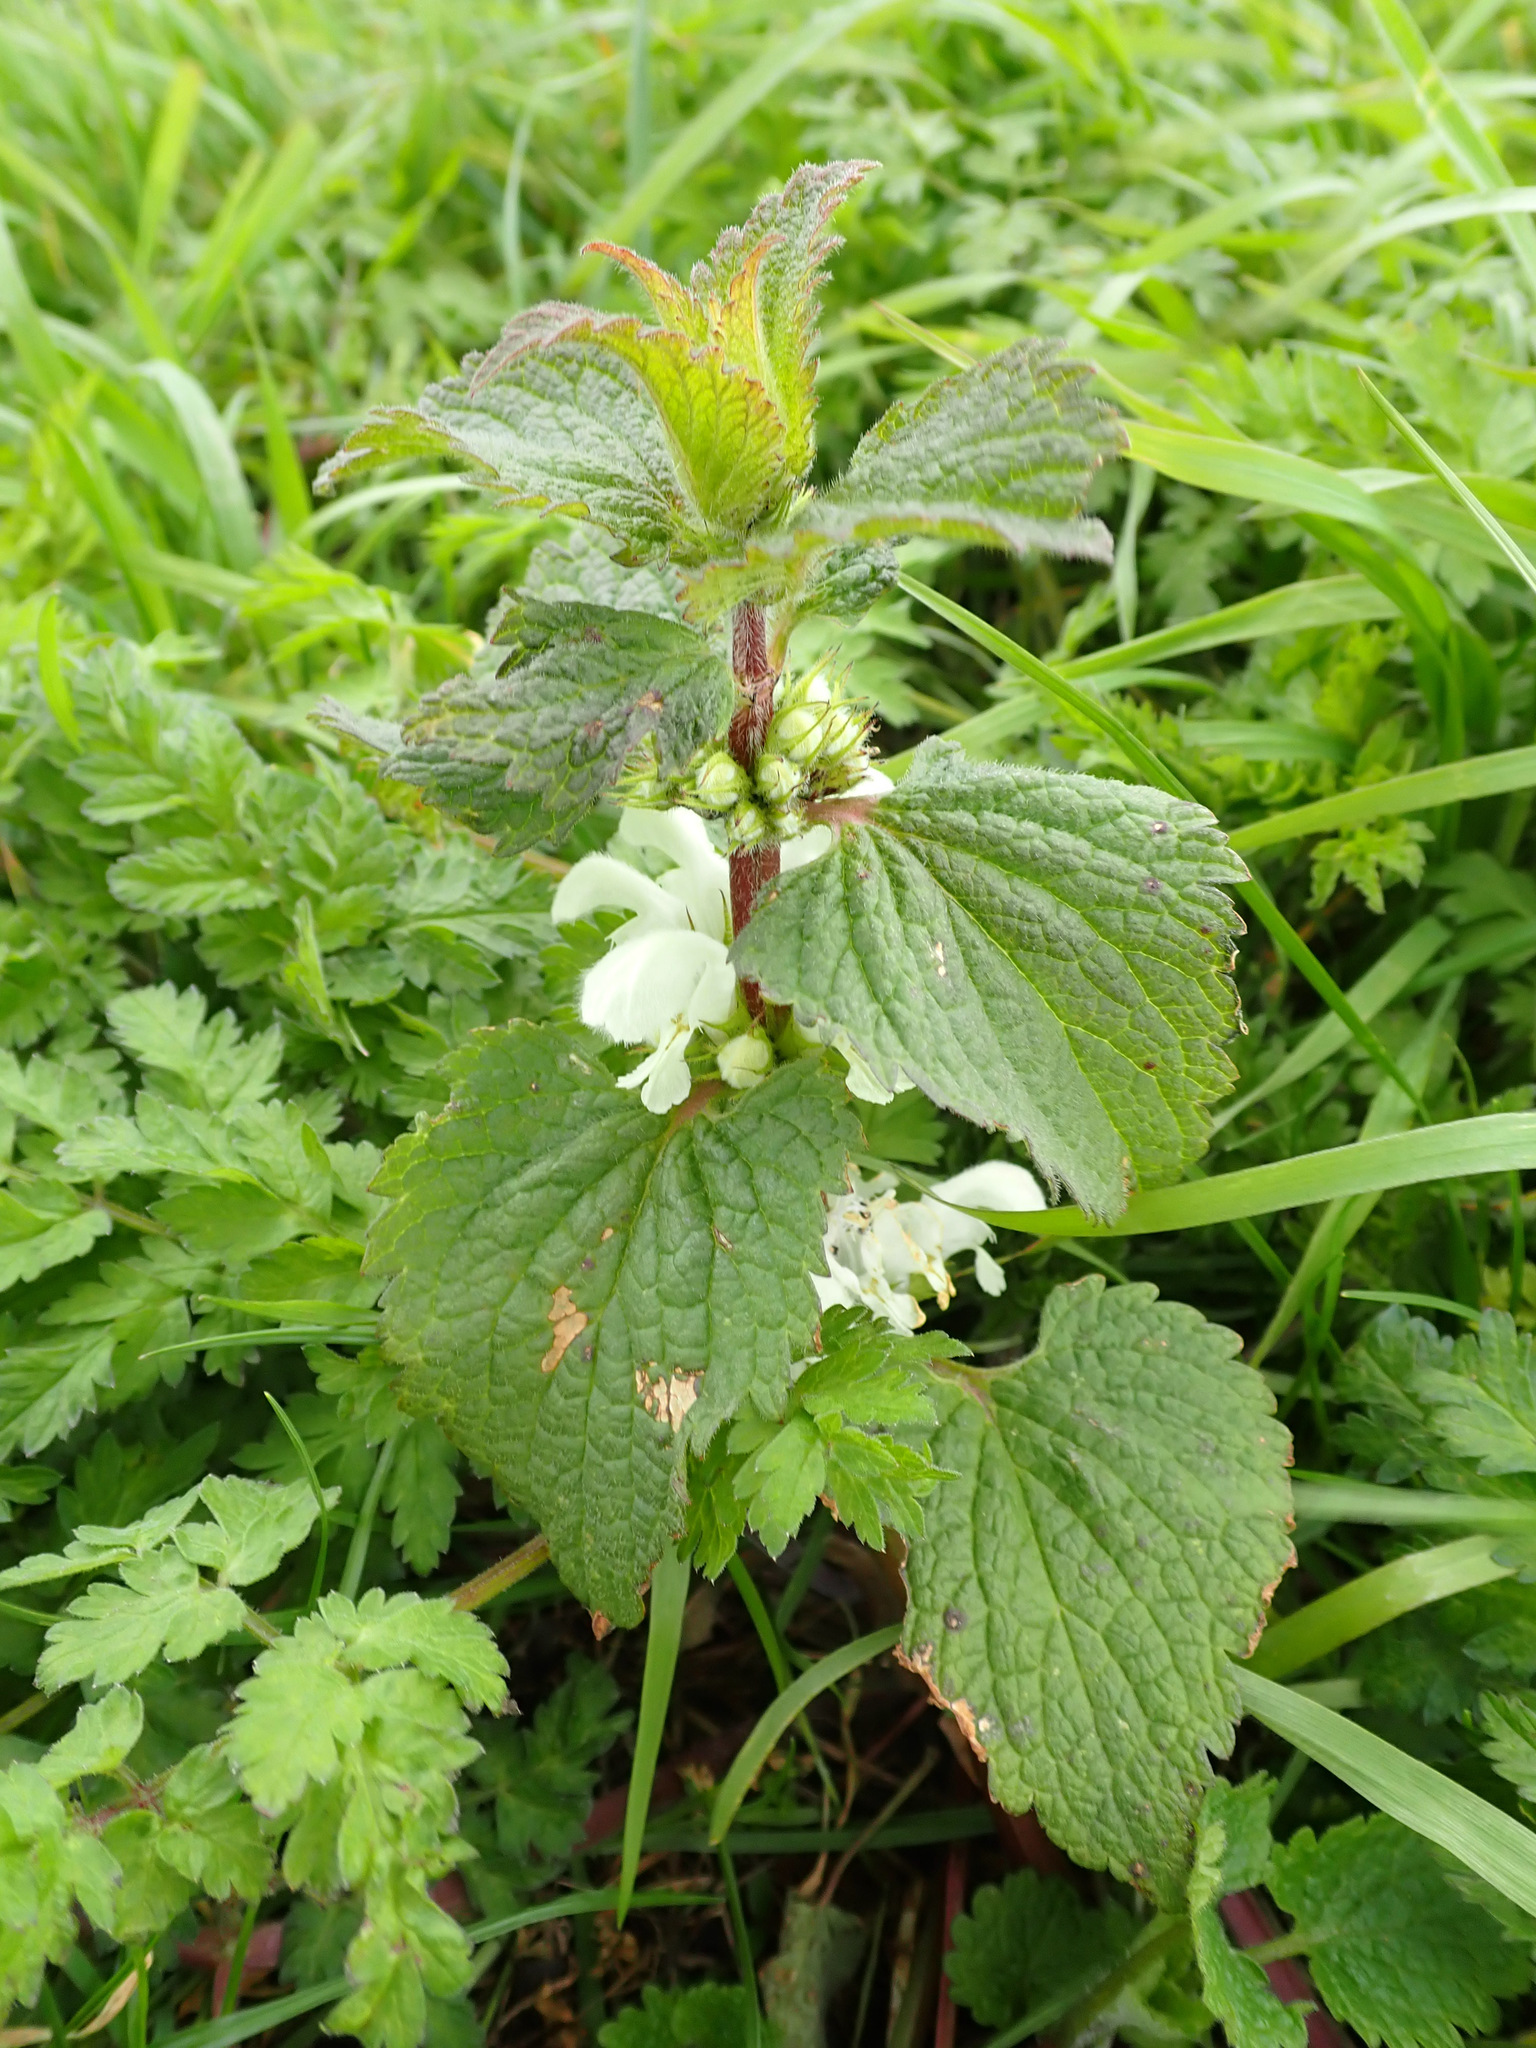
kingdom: Plantae
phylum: Tracheophyta
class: Magnoliopsida
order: Lamiales
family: Lamiaceae
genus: Lamium
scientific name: Lamium album
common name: White dead-nettle
